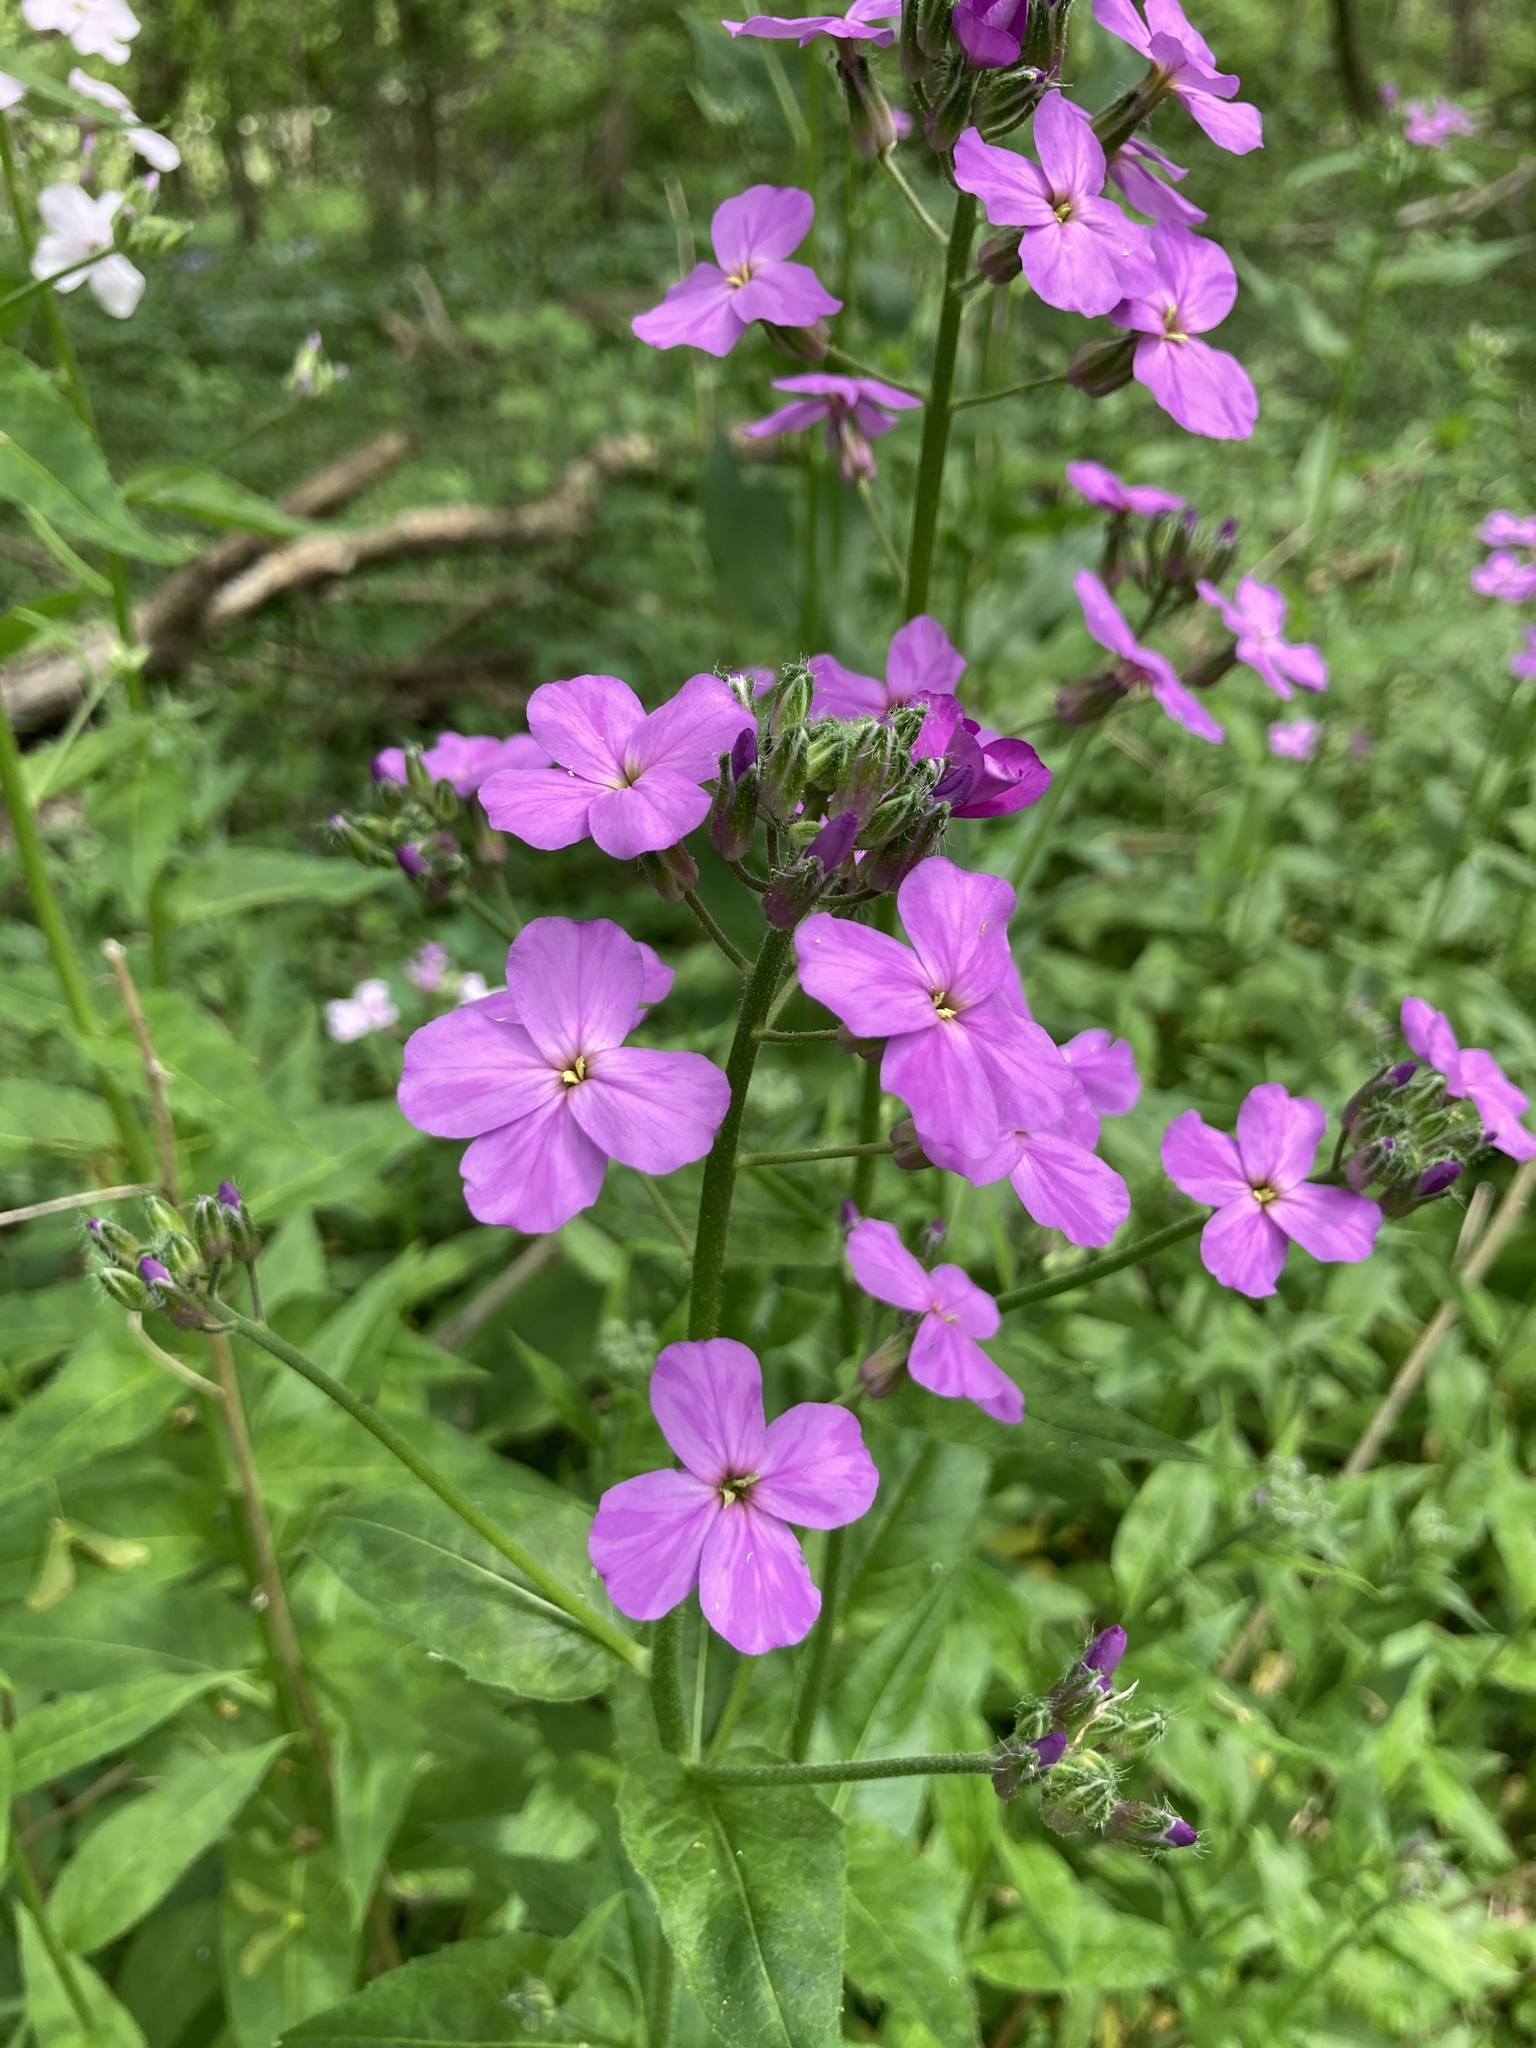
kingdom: Plantae
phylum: Tracheophyta
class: Magnoliopsida
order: Brassicales
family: Brassicaceae
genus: Hesperis
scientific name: Hesperis matronalis
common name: Dame's-violet
